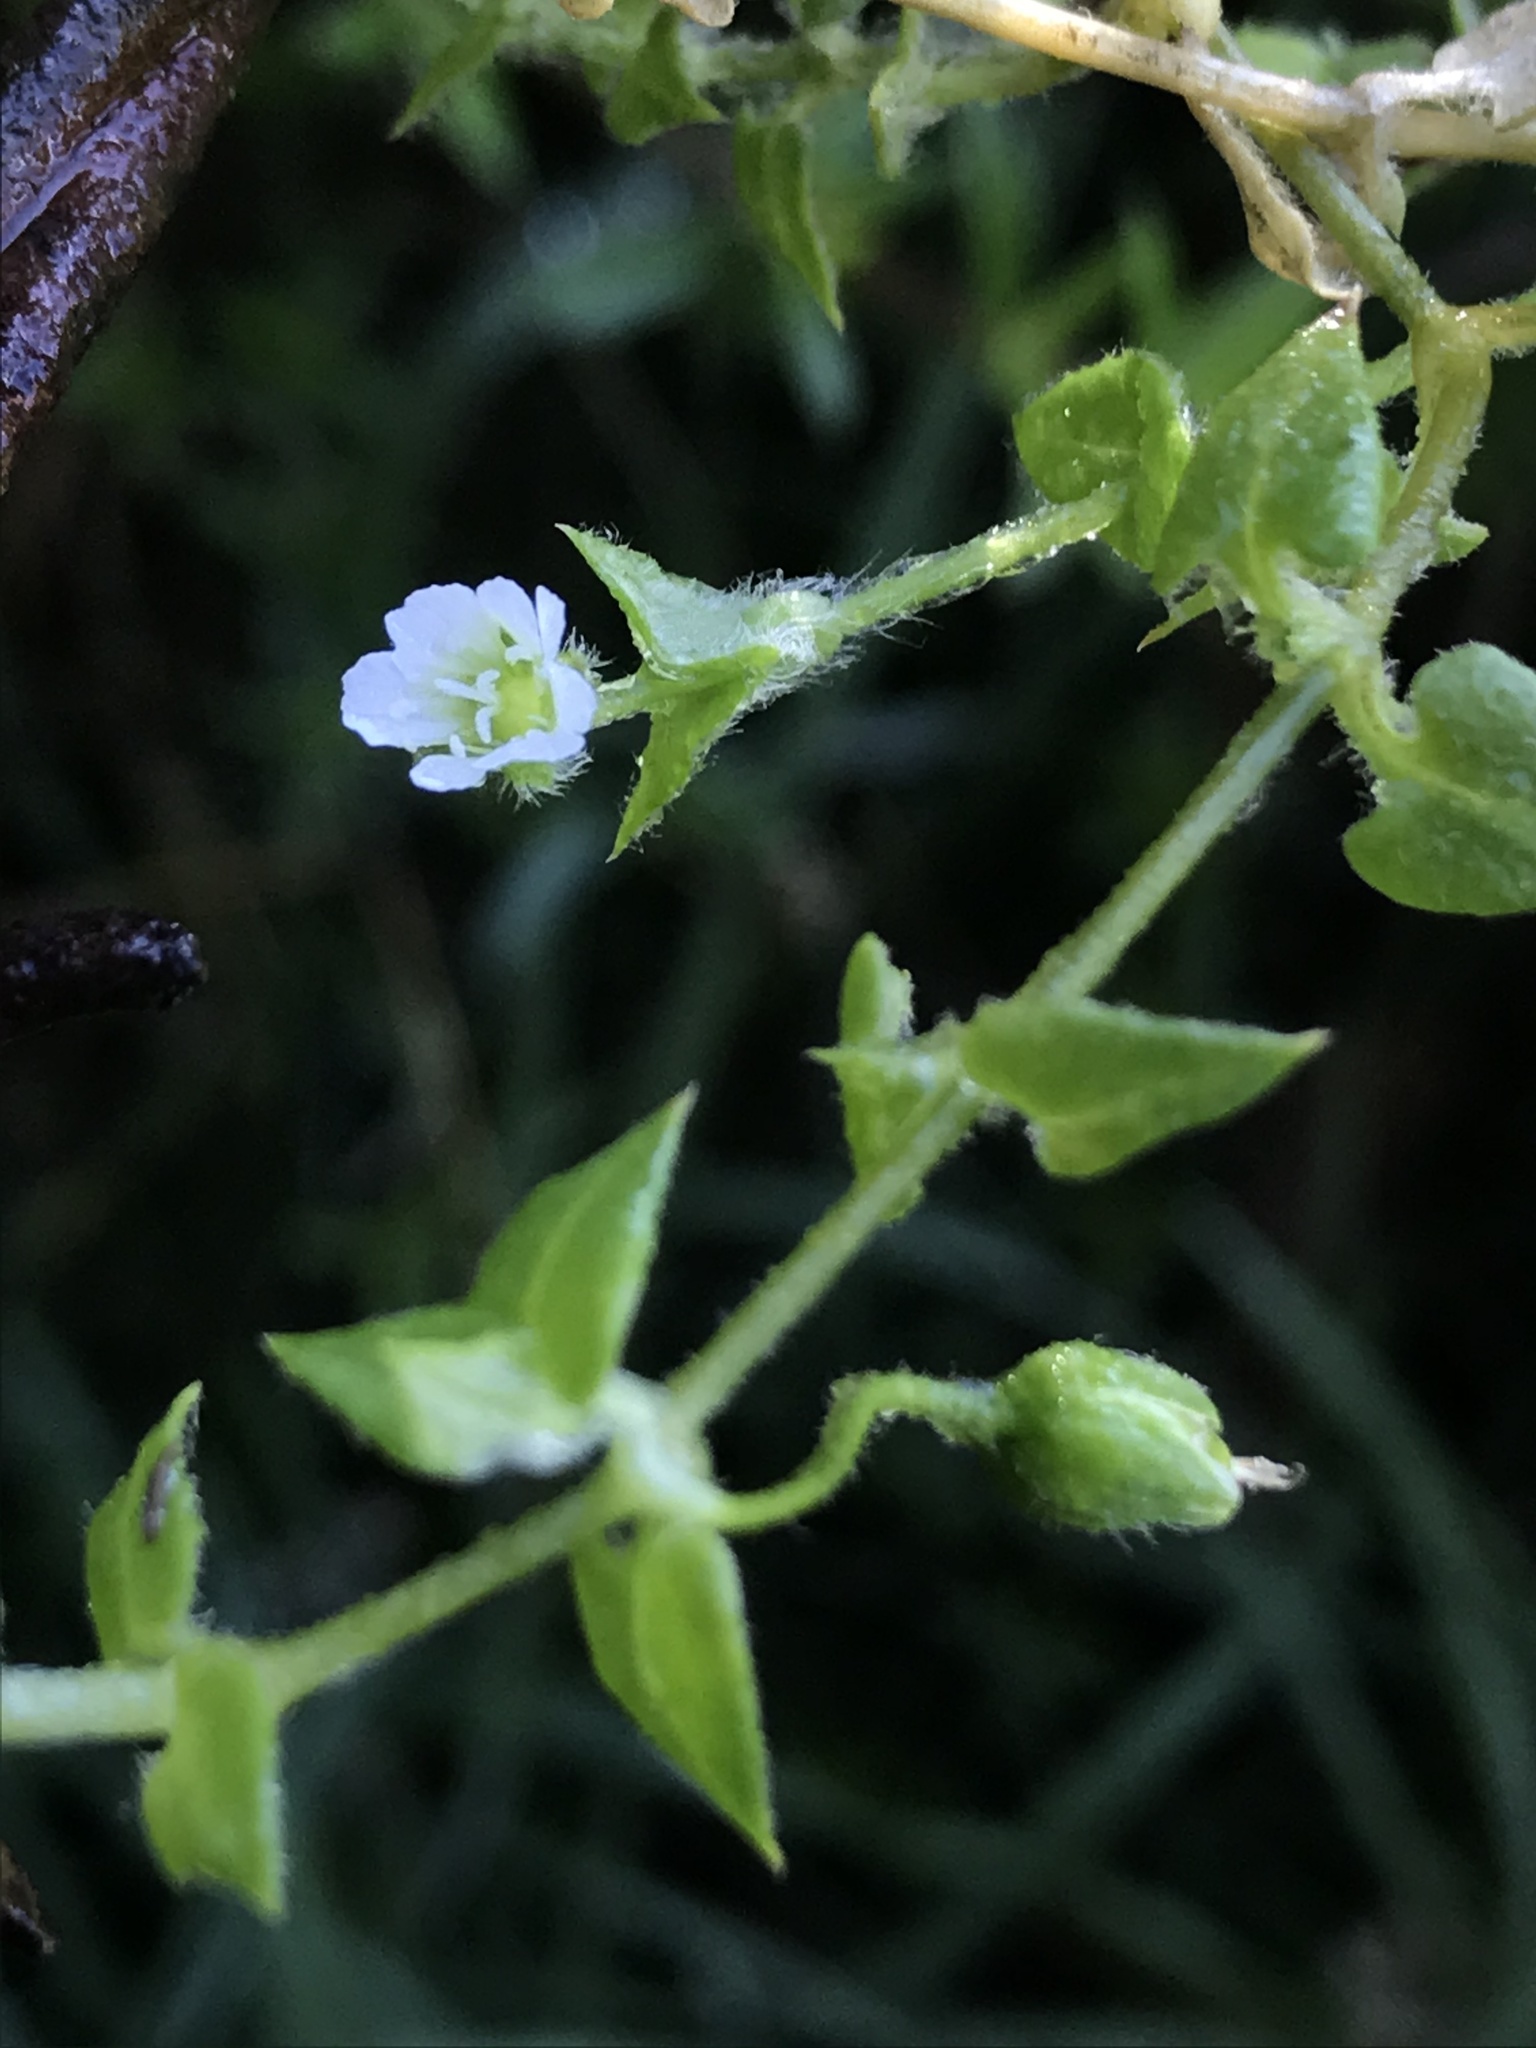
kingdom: Plantae
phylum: Tracheophyta
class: Magnoliopsida
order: Caryophyllales
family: Caryophyllaceae
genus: Stellaria
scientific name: Stellaria cuspidata
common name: Mexican chickweed
